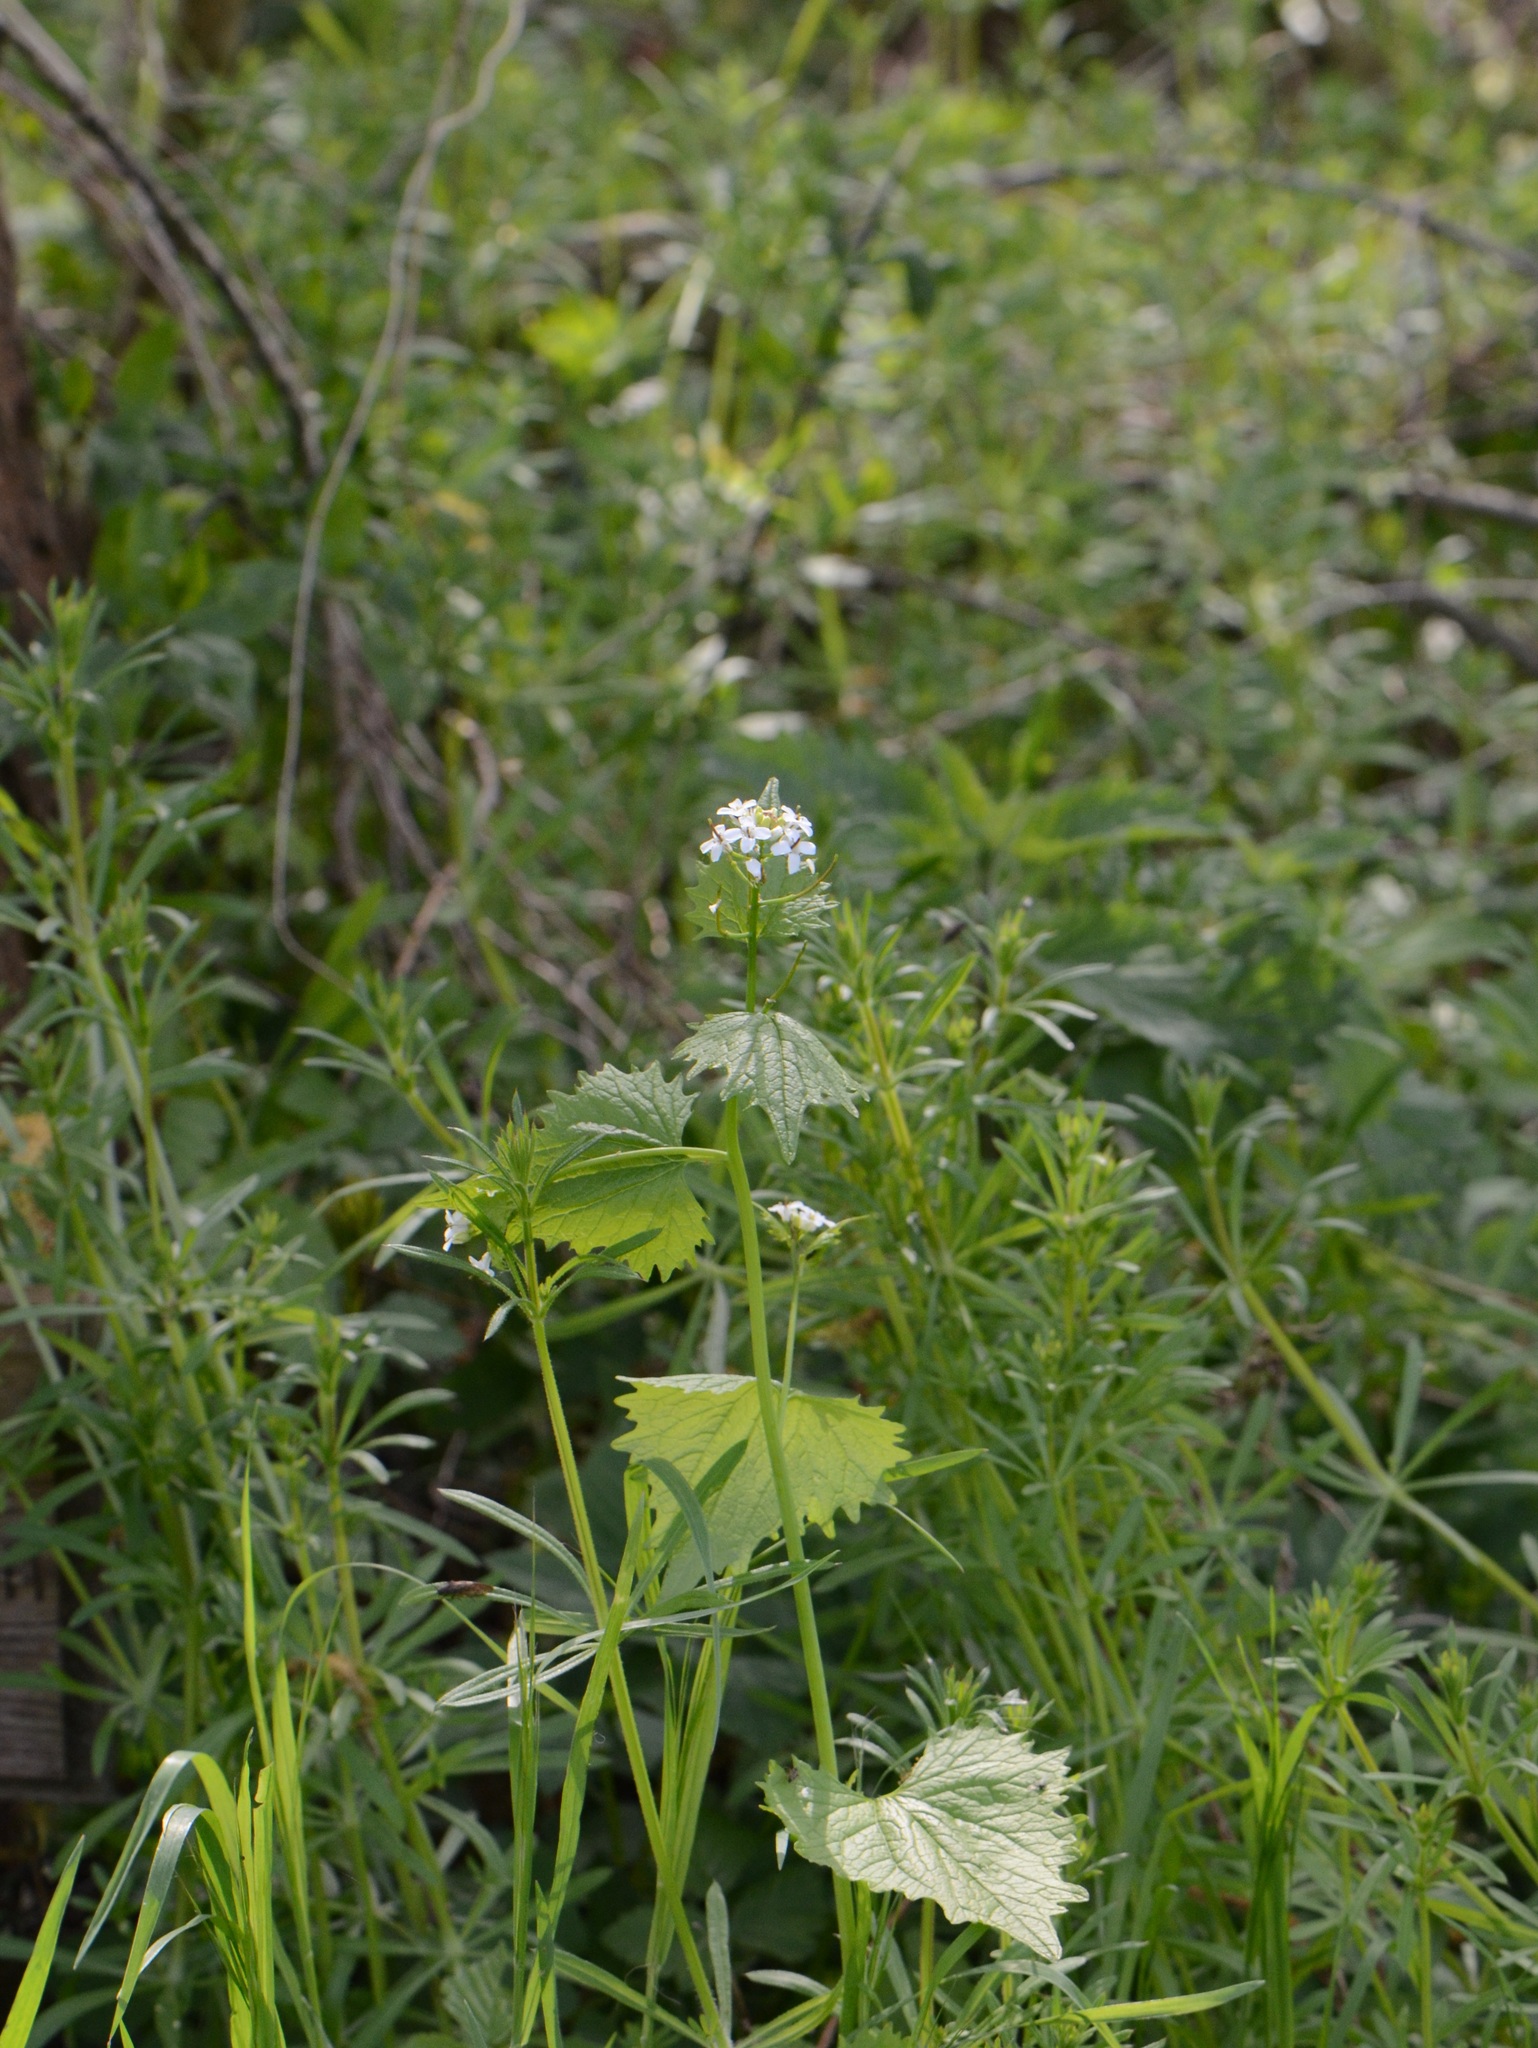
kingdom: Plantae
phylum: Tracheophyta
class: Magnoliopsida
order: Gentianales
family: Rubiaceae
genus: Galium
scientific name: Galium aparine
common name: Cleavers
